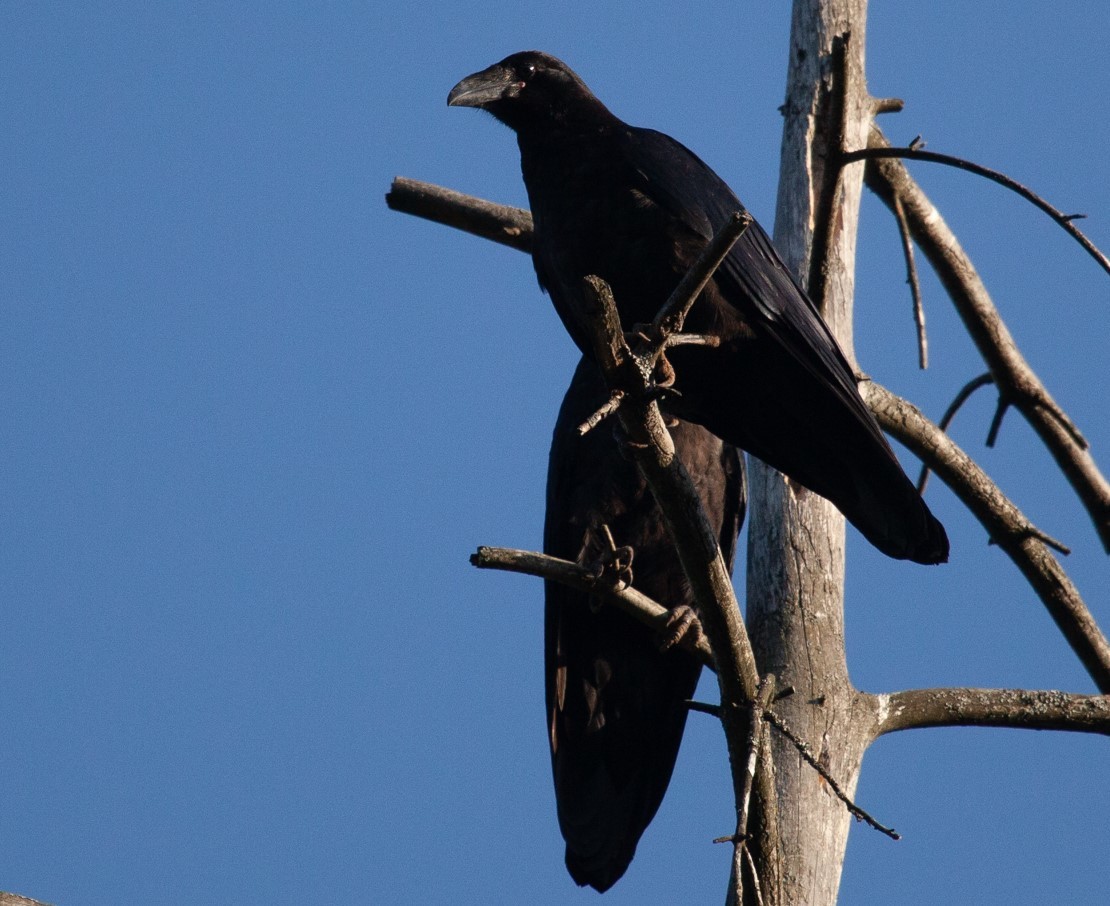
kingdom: Animalia
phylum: Chordata
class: Aves
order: Passeriformes
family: Corvidae
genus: Corvus
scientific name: Corvus corax
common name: Common raven
